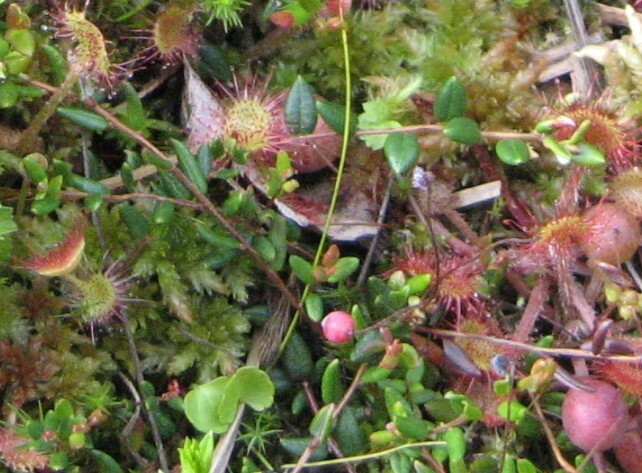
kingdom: Plantae
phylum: Tracheophyta
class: Magnoliopsida
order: Ericales
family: Ericaceae
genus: Vaccinium
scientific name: Vaccinium oxycoccos
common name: Cranberry
